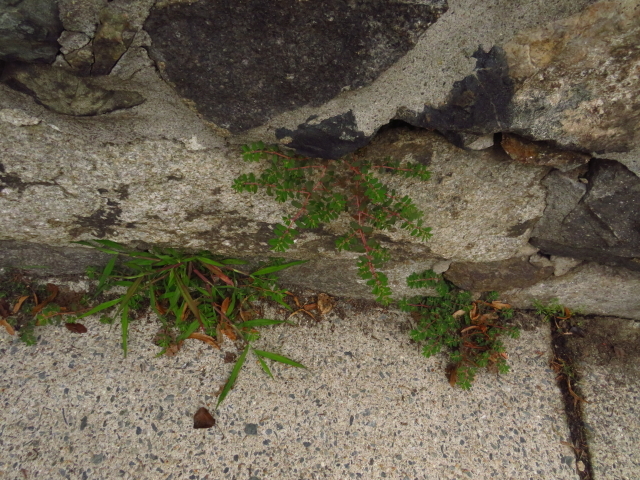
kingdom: Plantae
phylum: Tracheophyta
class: Magnoliopsida
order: Malpighiales
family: Euphorbiaceae
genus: Euphorbia
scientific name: Euphorbia maculata
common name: Spotted spurge
